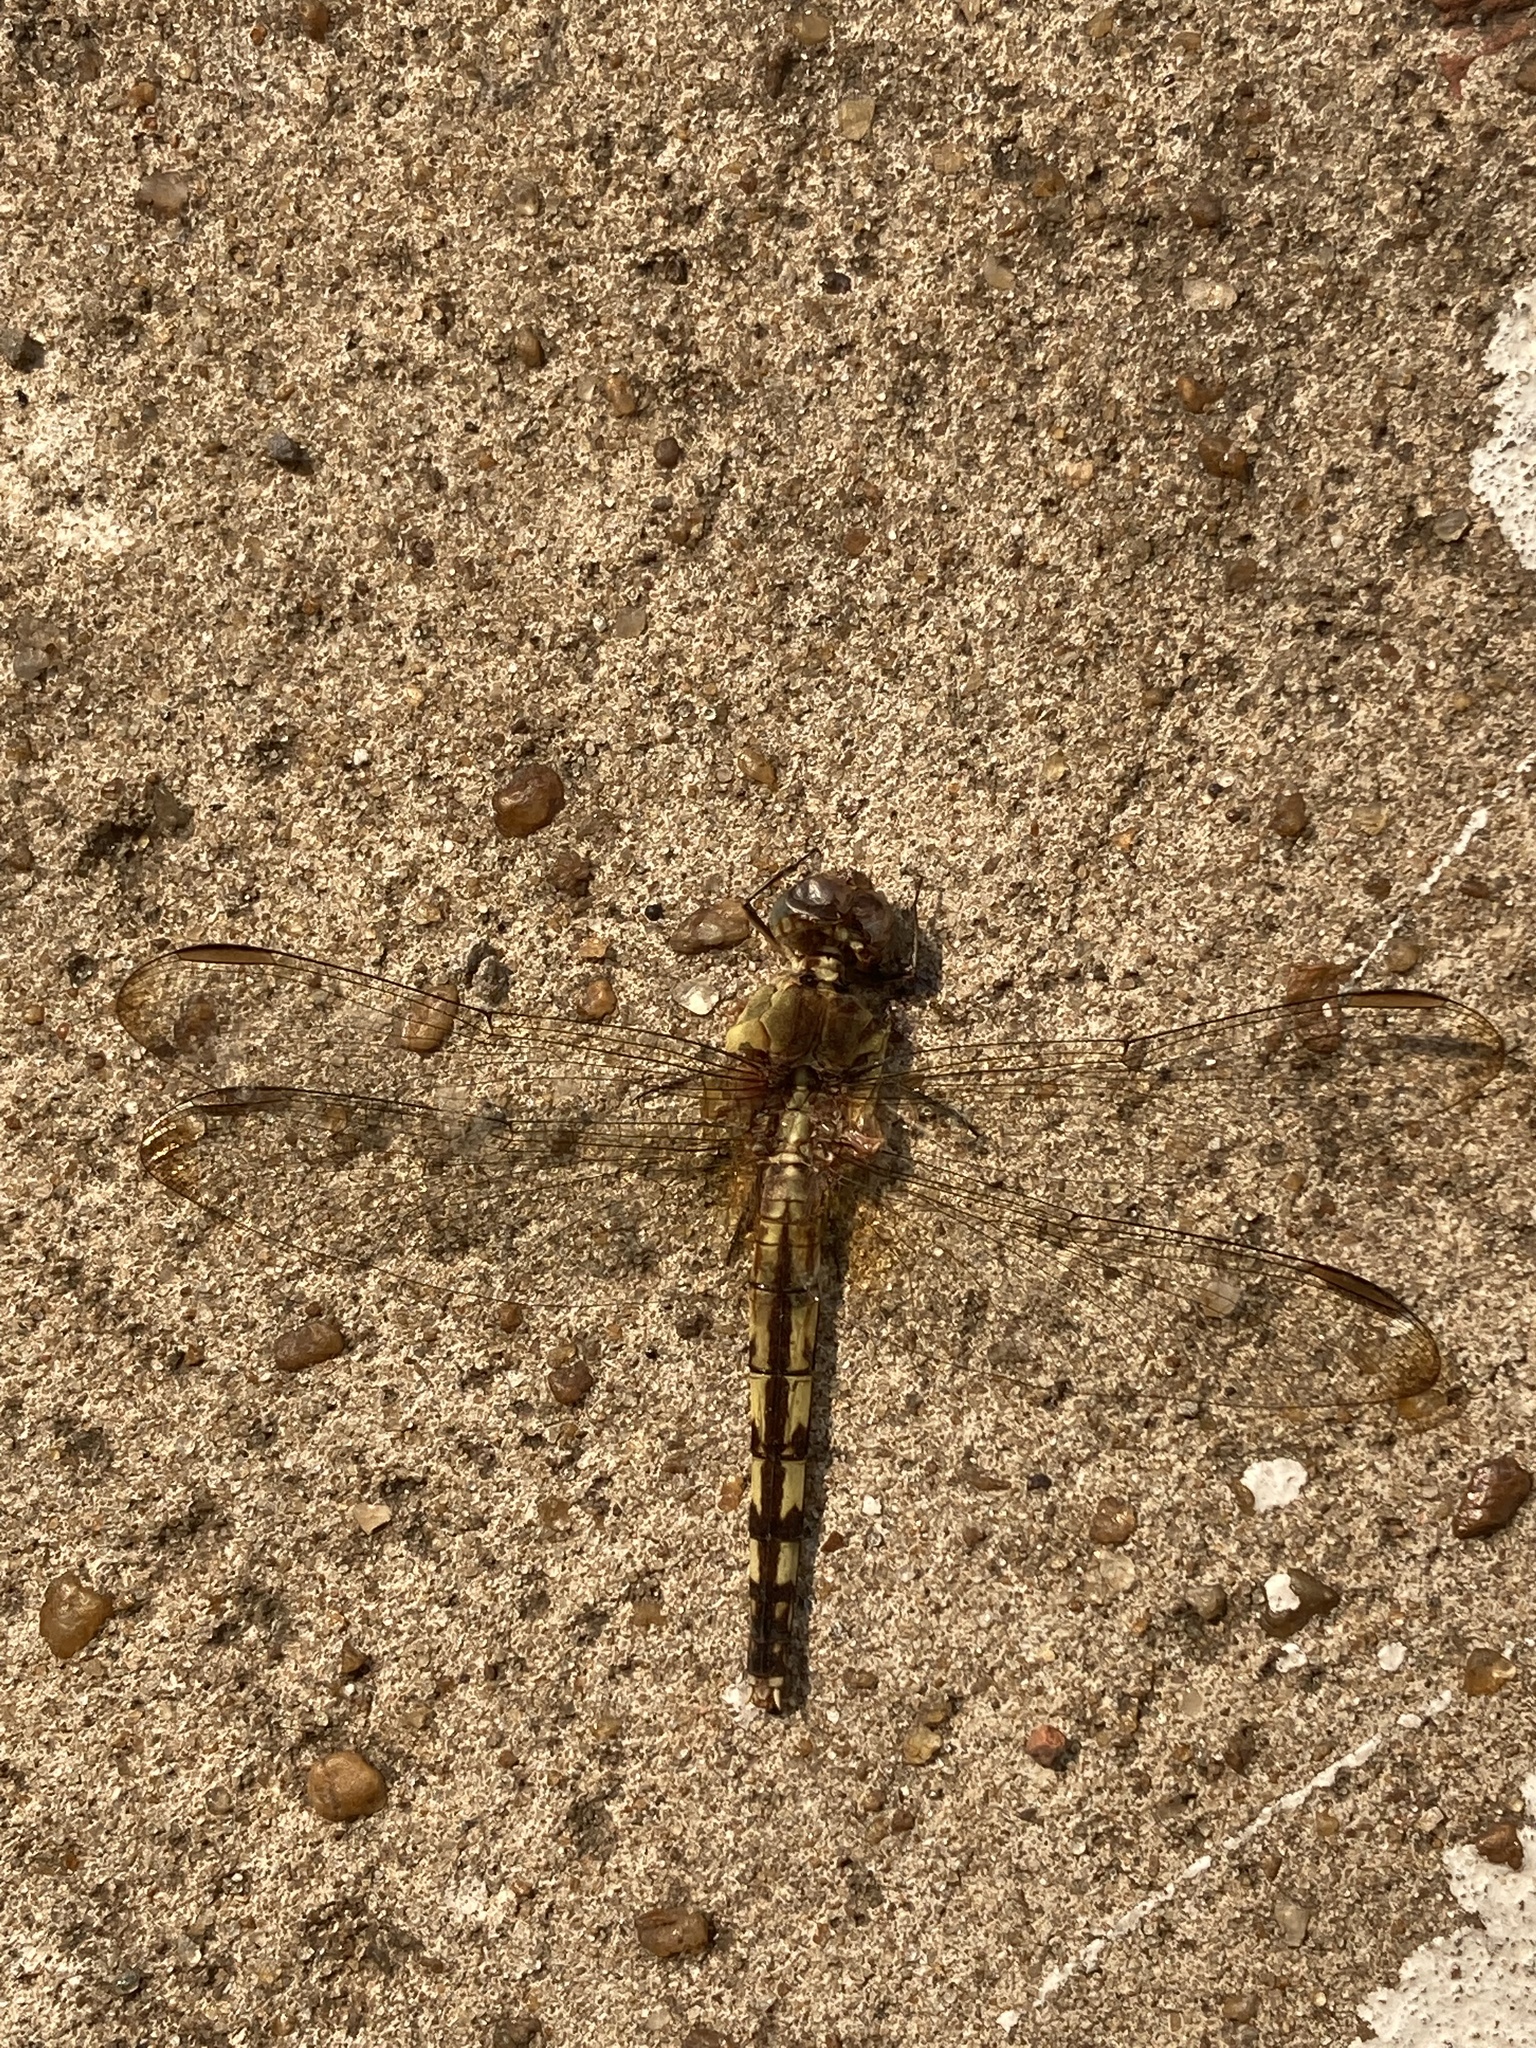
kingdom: Animalia
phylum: Arthropoda
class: Insecta
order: Odonata
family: Libellulidae
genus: Erythrodiplax
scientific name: Erythrodiplax umbrata
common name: Band-winged dragonlet
